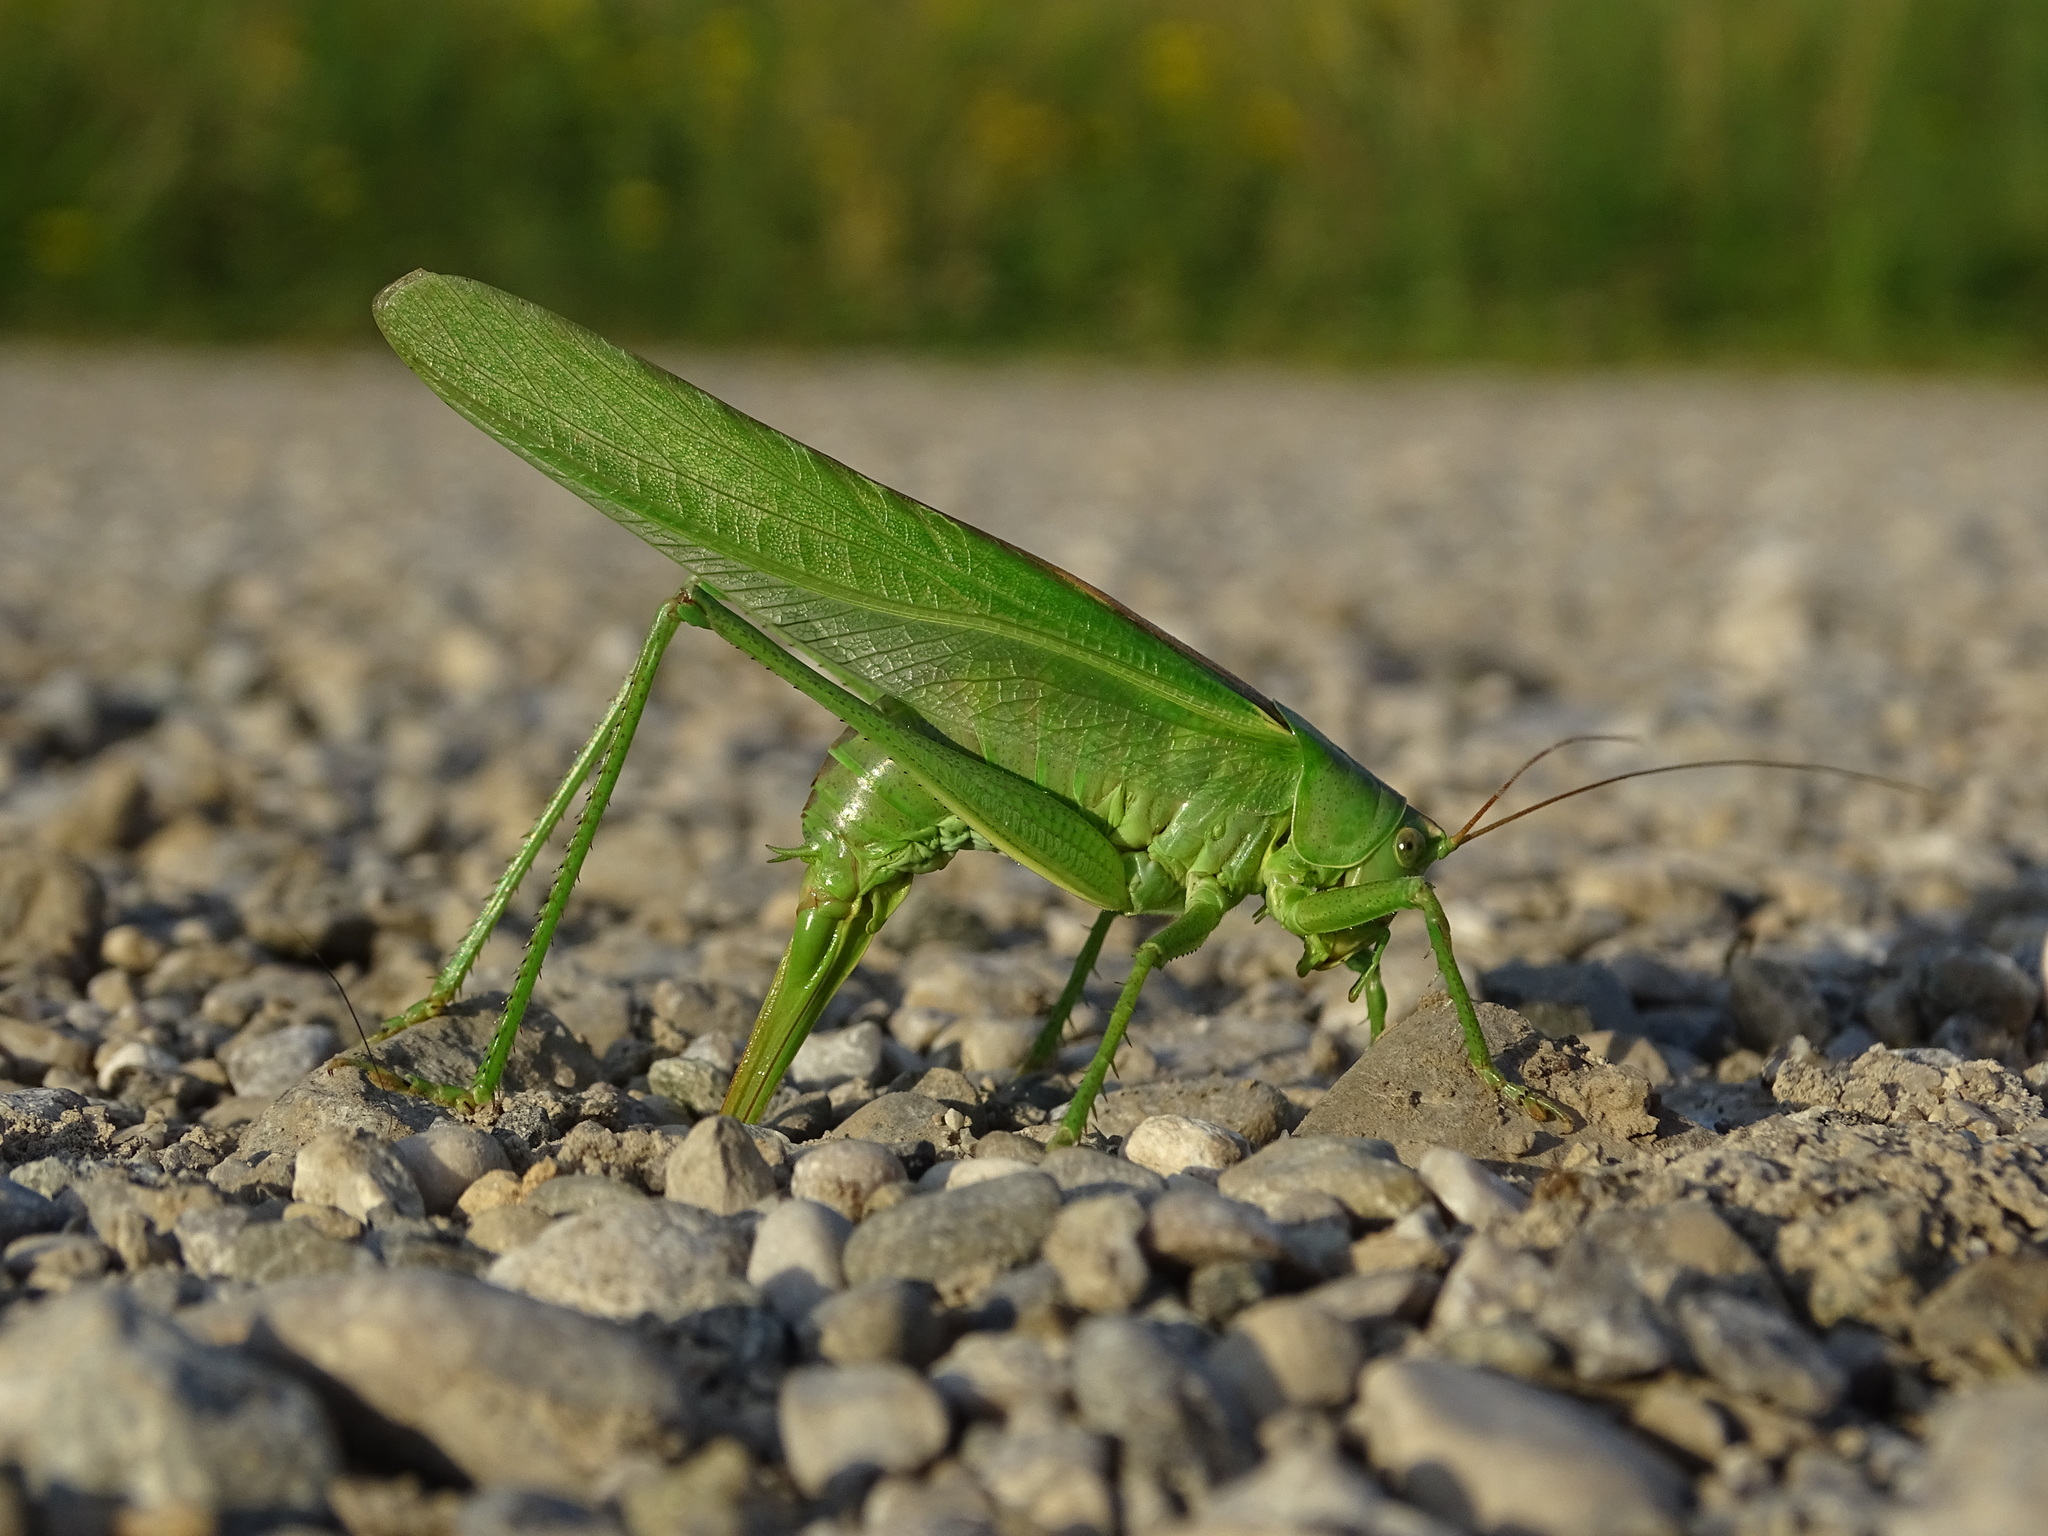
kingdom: Animalia
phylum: Arthropoda
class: Insecta
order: Orthoptera
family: Tettigoniidae
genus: Tettigonia
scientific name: Tettigonia viridissima
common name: Great green bush-cricket
